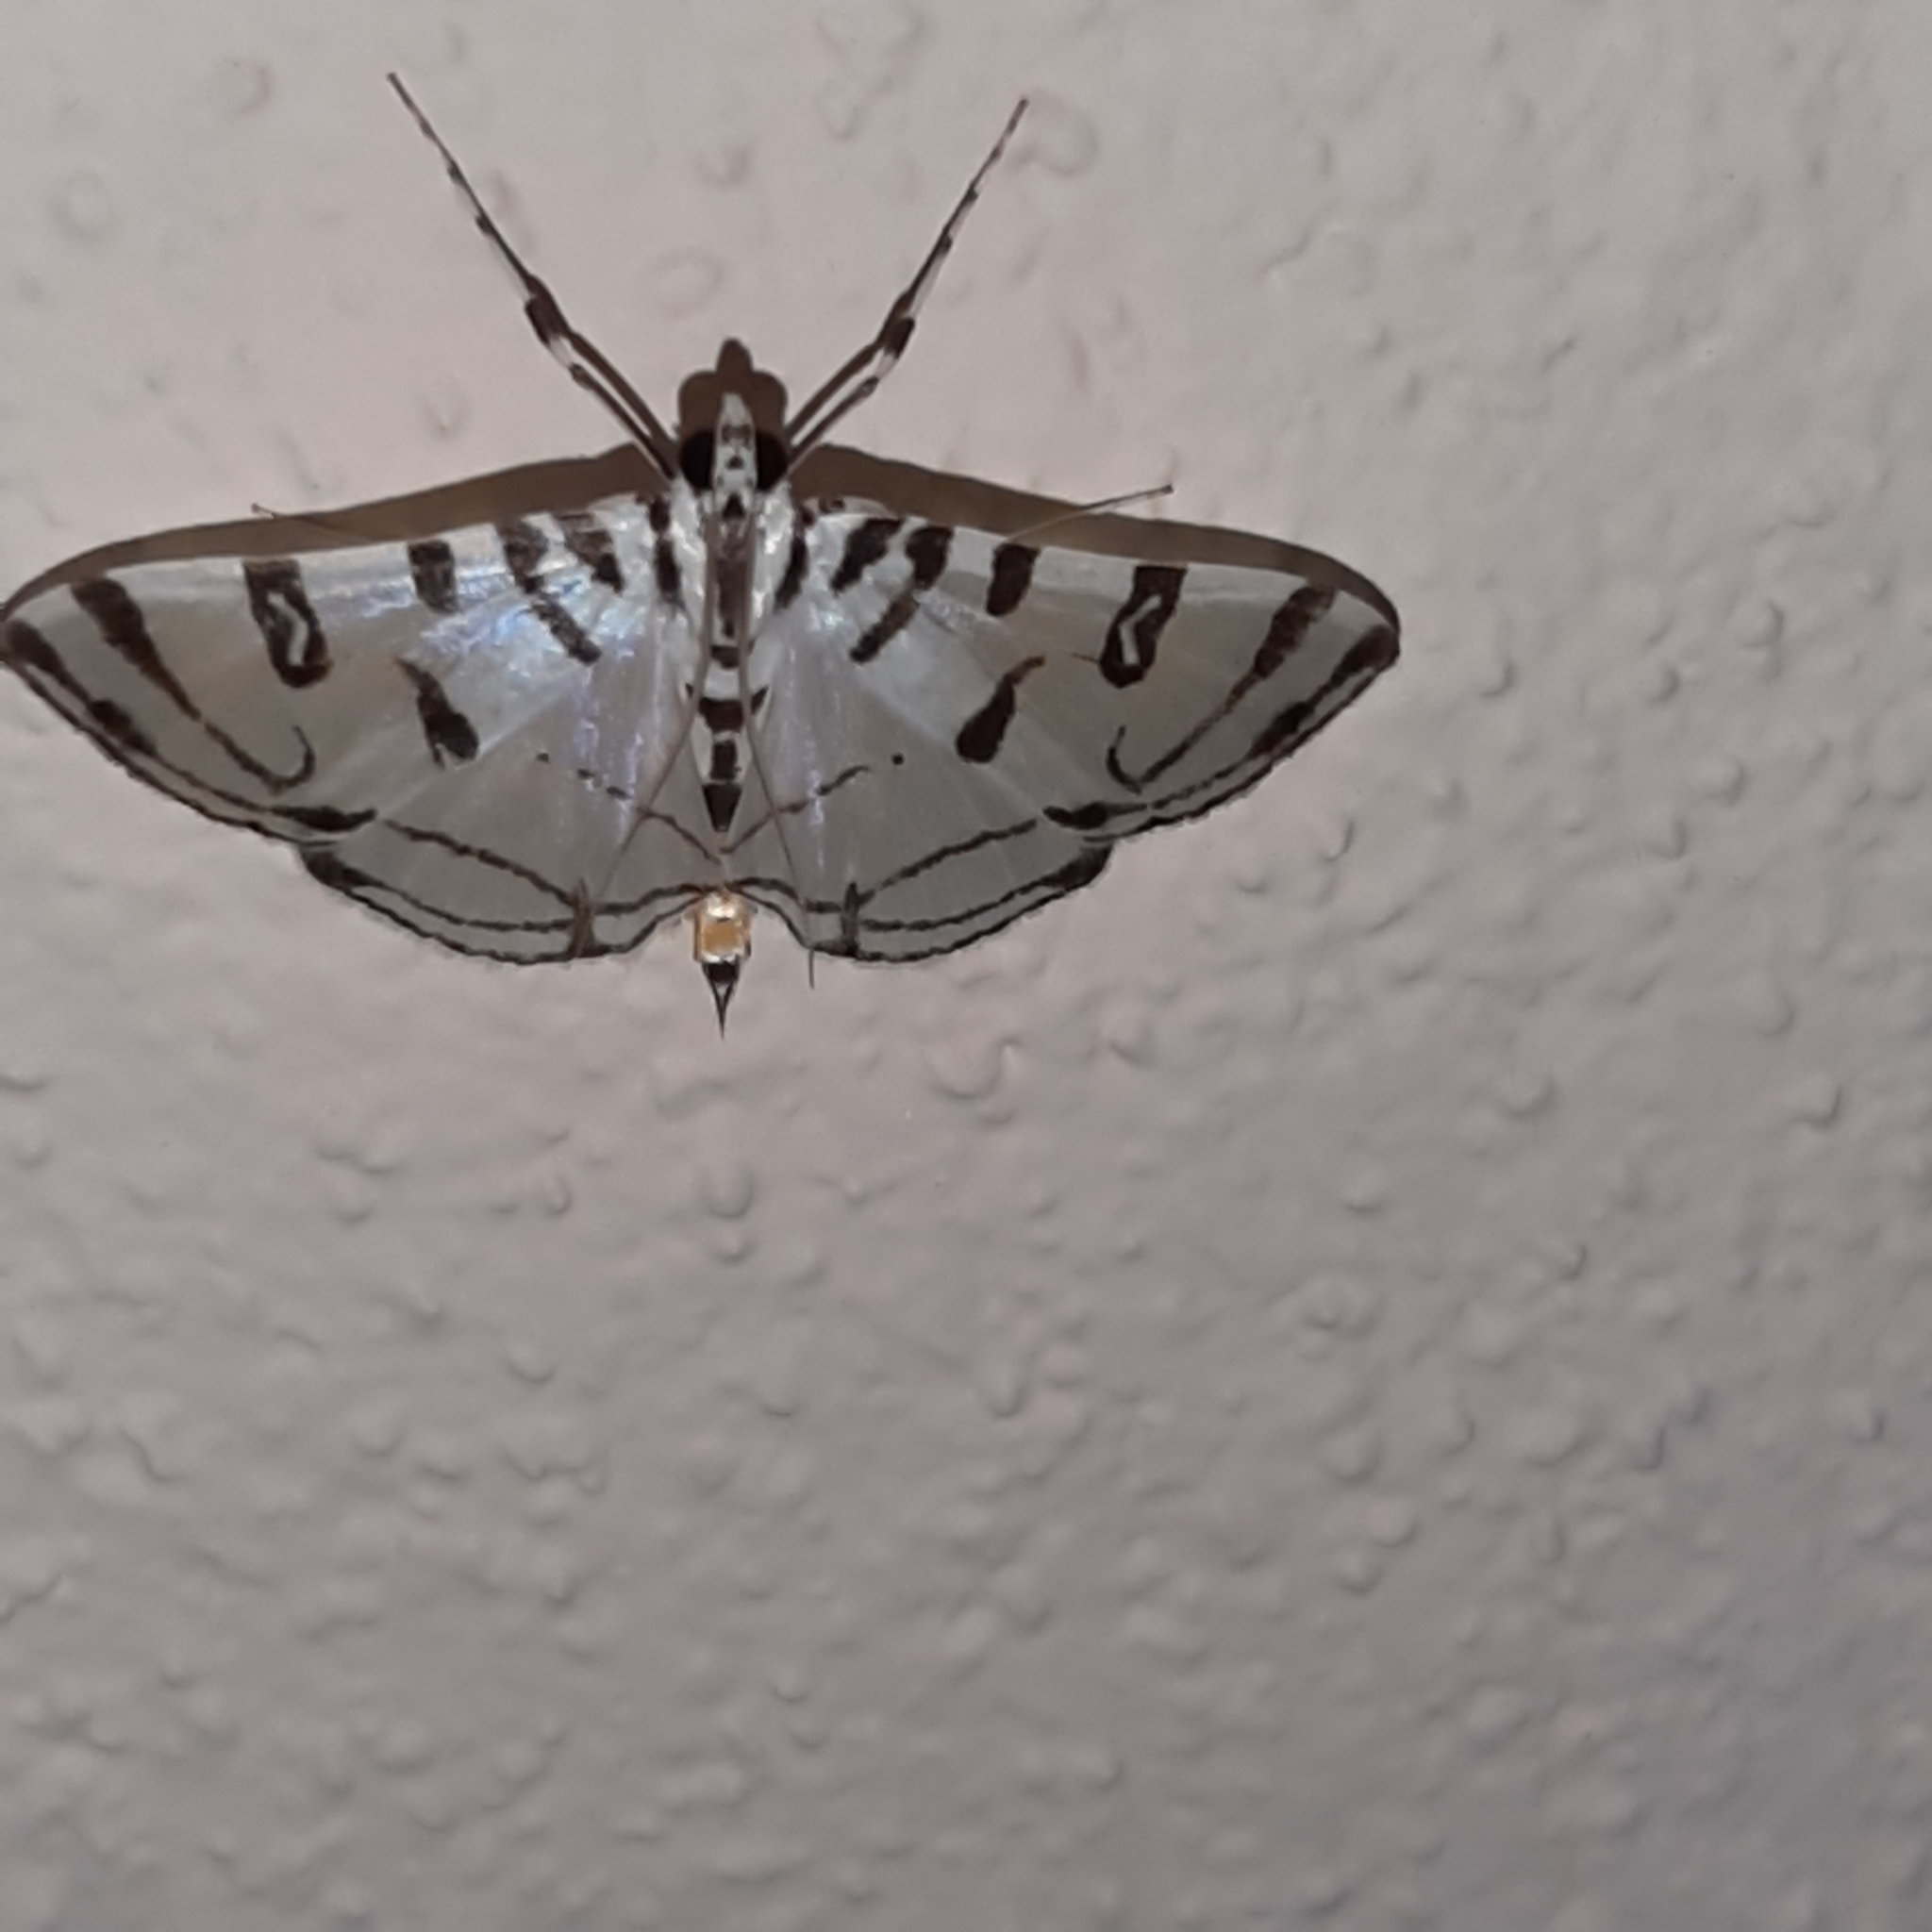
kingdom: Animalia
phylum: Arthropoda
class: Insecta
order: Lepidoptera
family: Crambidae
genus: Conchylodes
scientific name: Conchylodes platinalis
